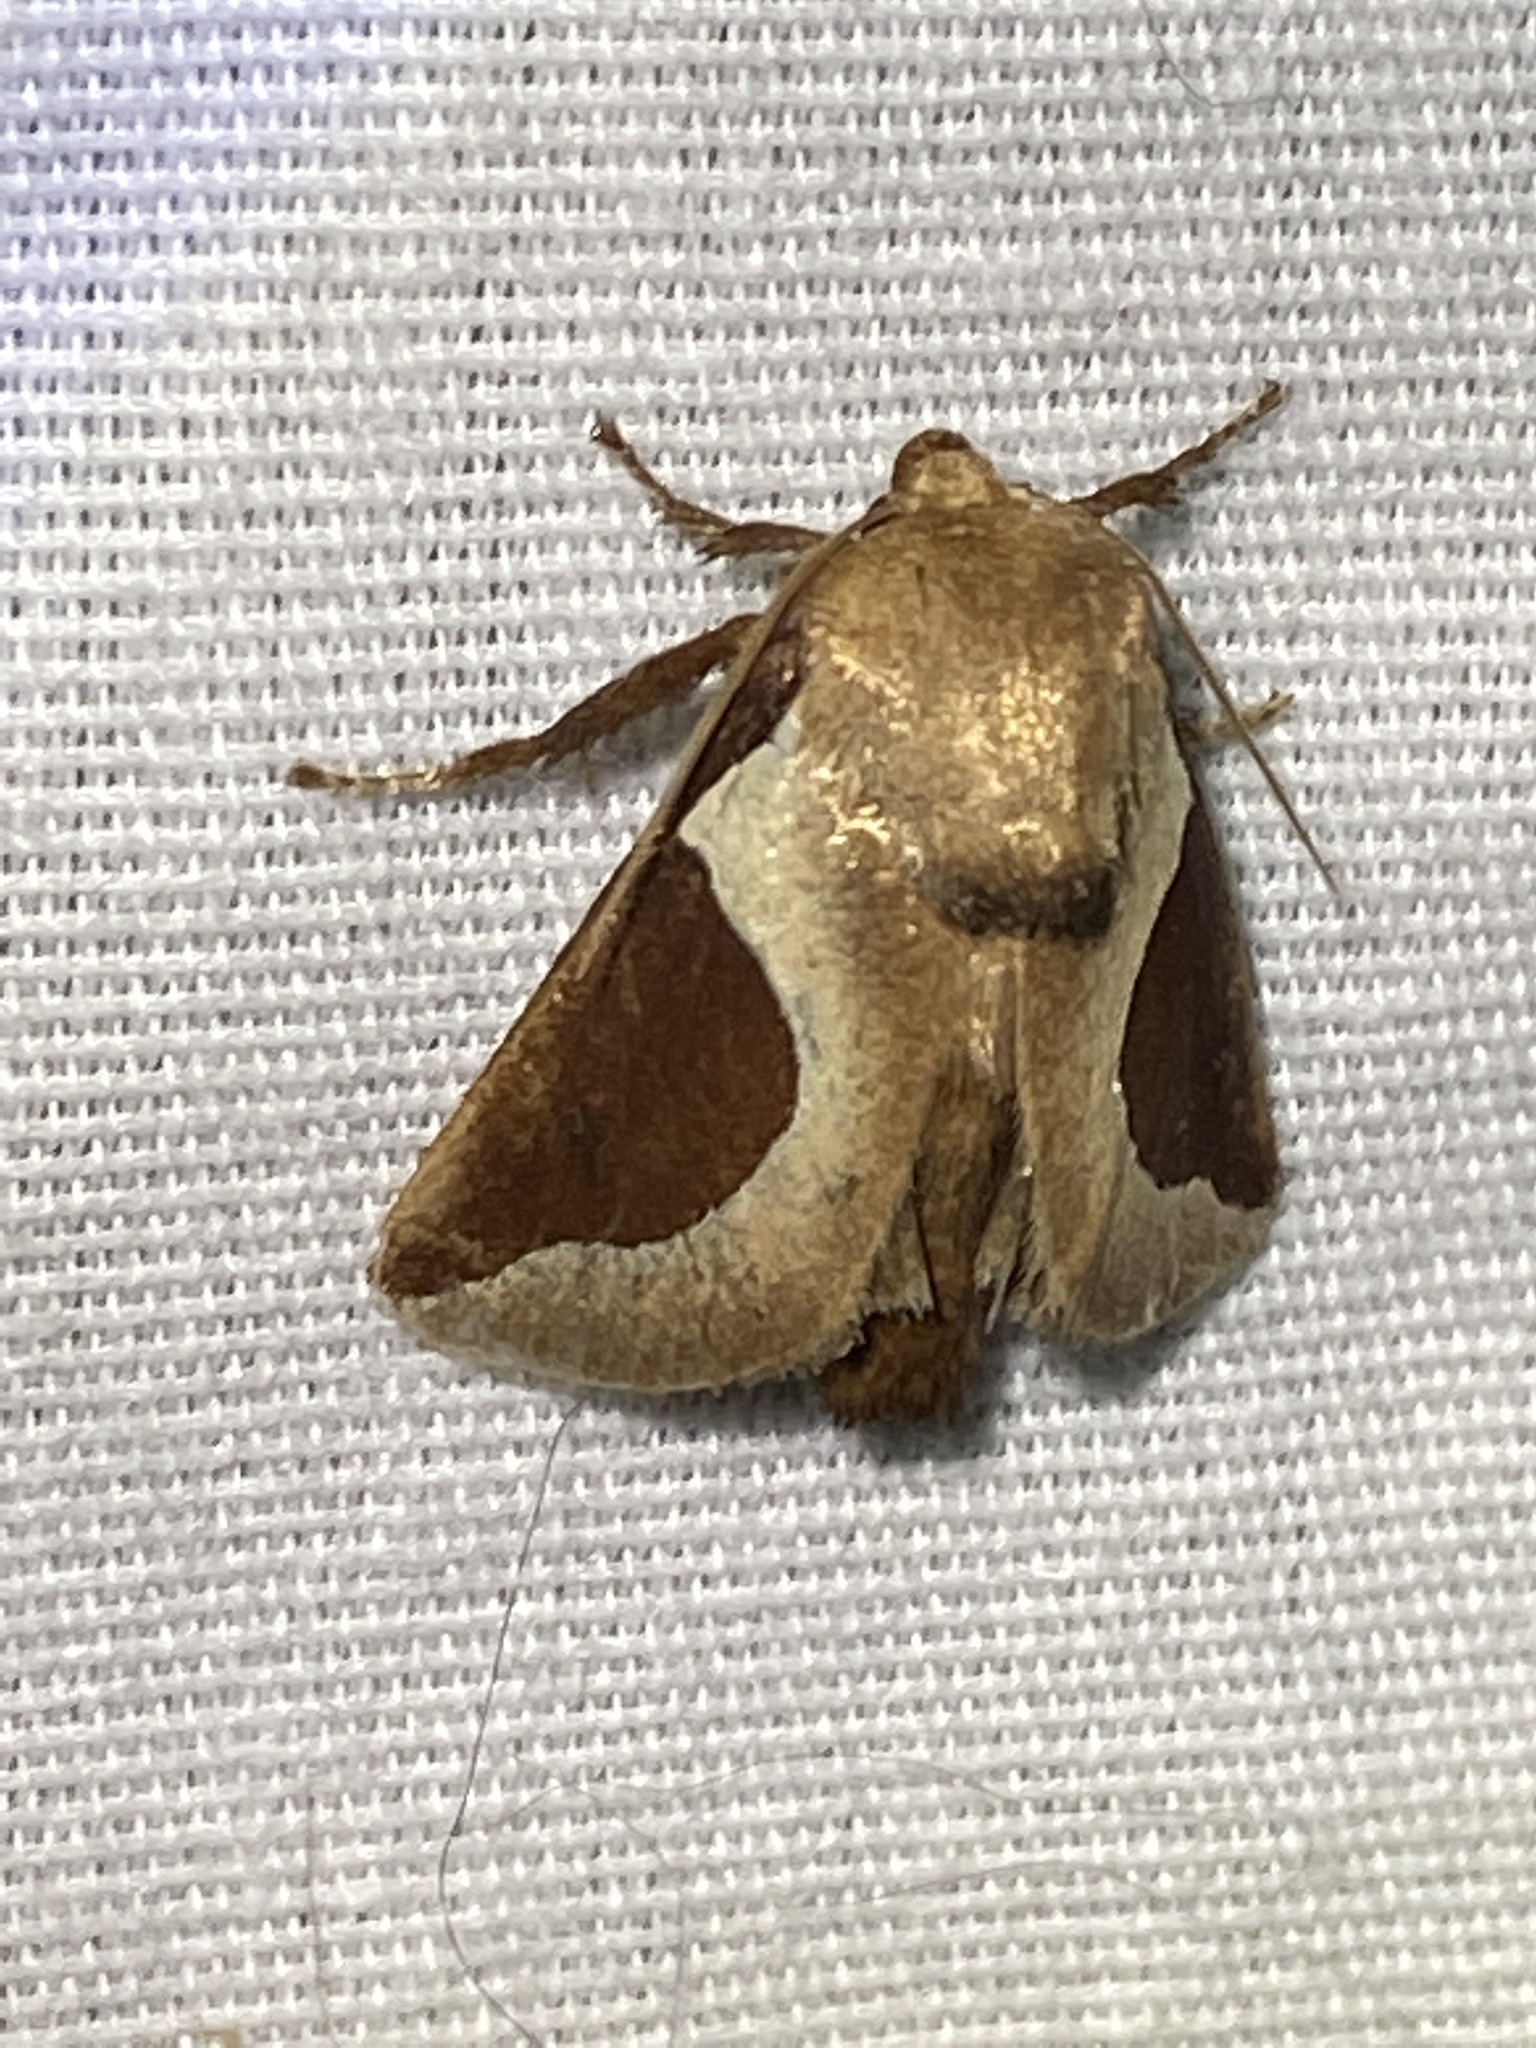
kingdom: Animalia
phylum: Arthropoda
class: Insecta
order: Lepidoptera
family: Limacodidae
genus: Prolimacodes
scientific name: Prolimacodes badia
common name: Skiff moth
